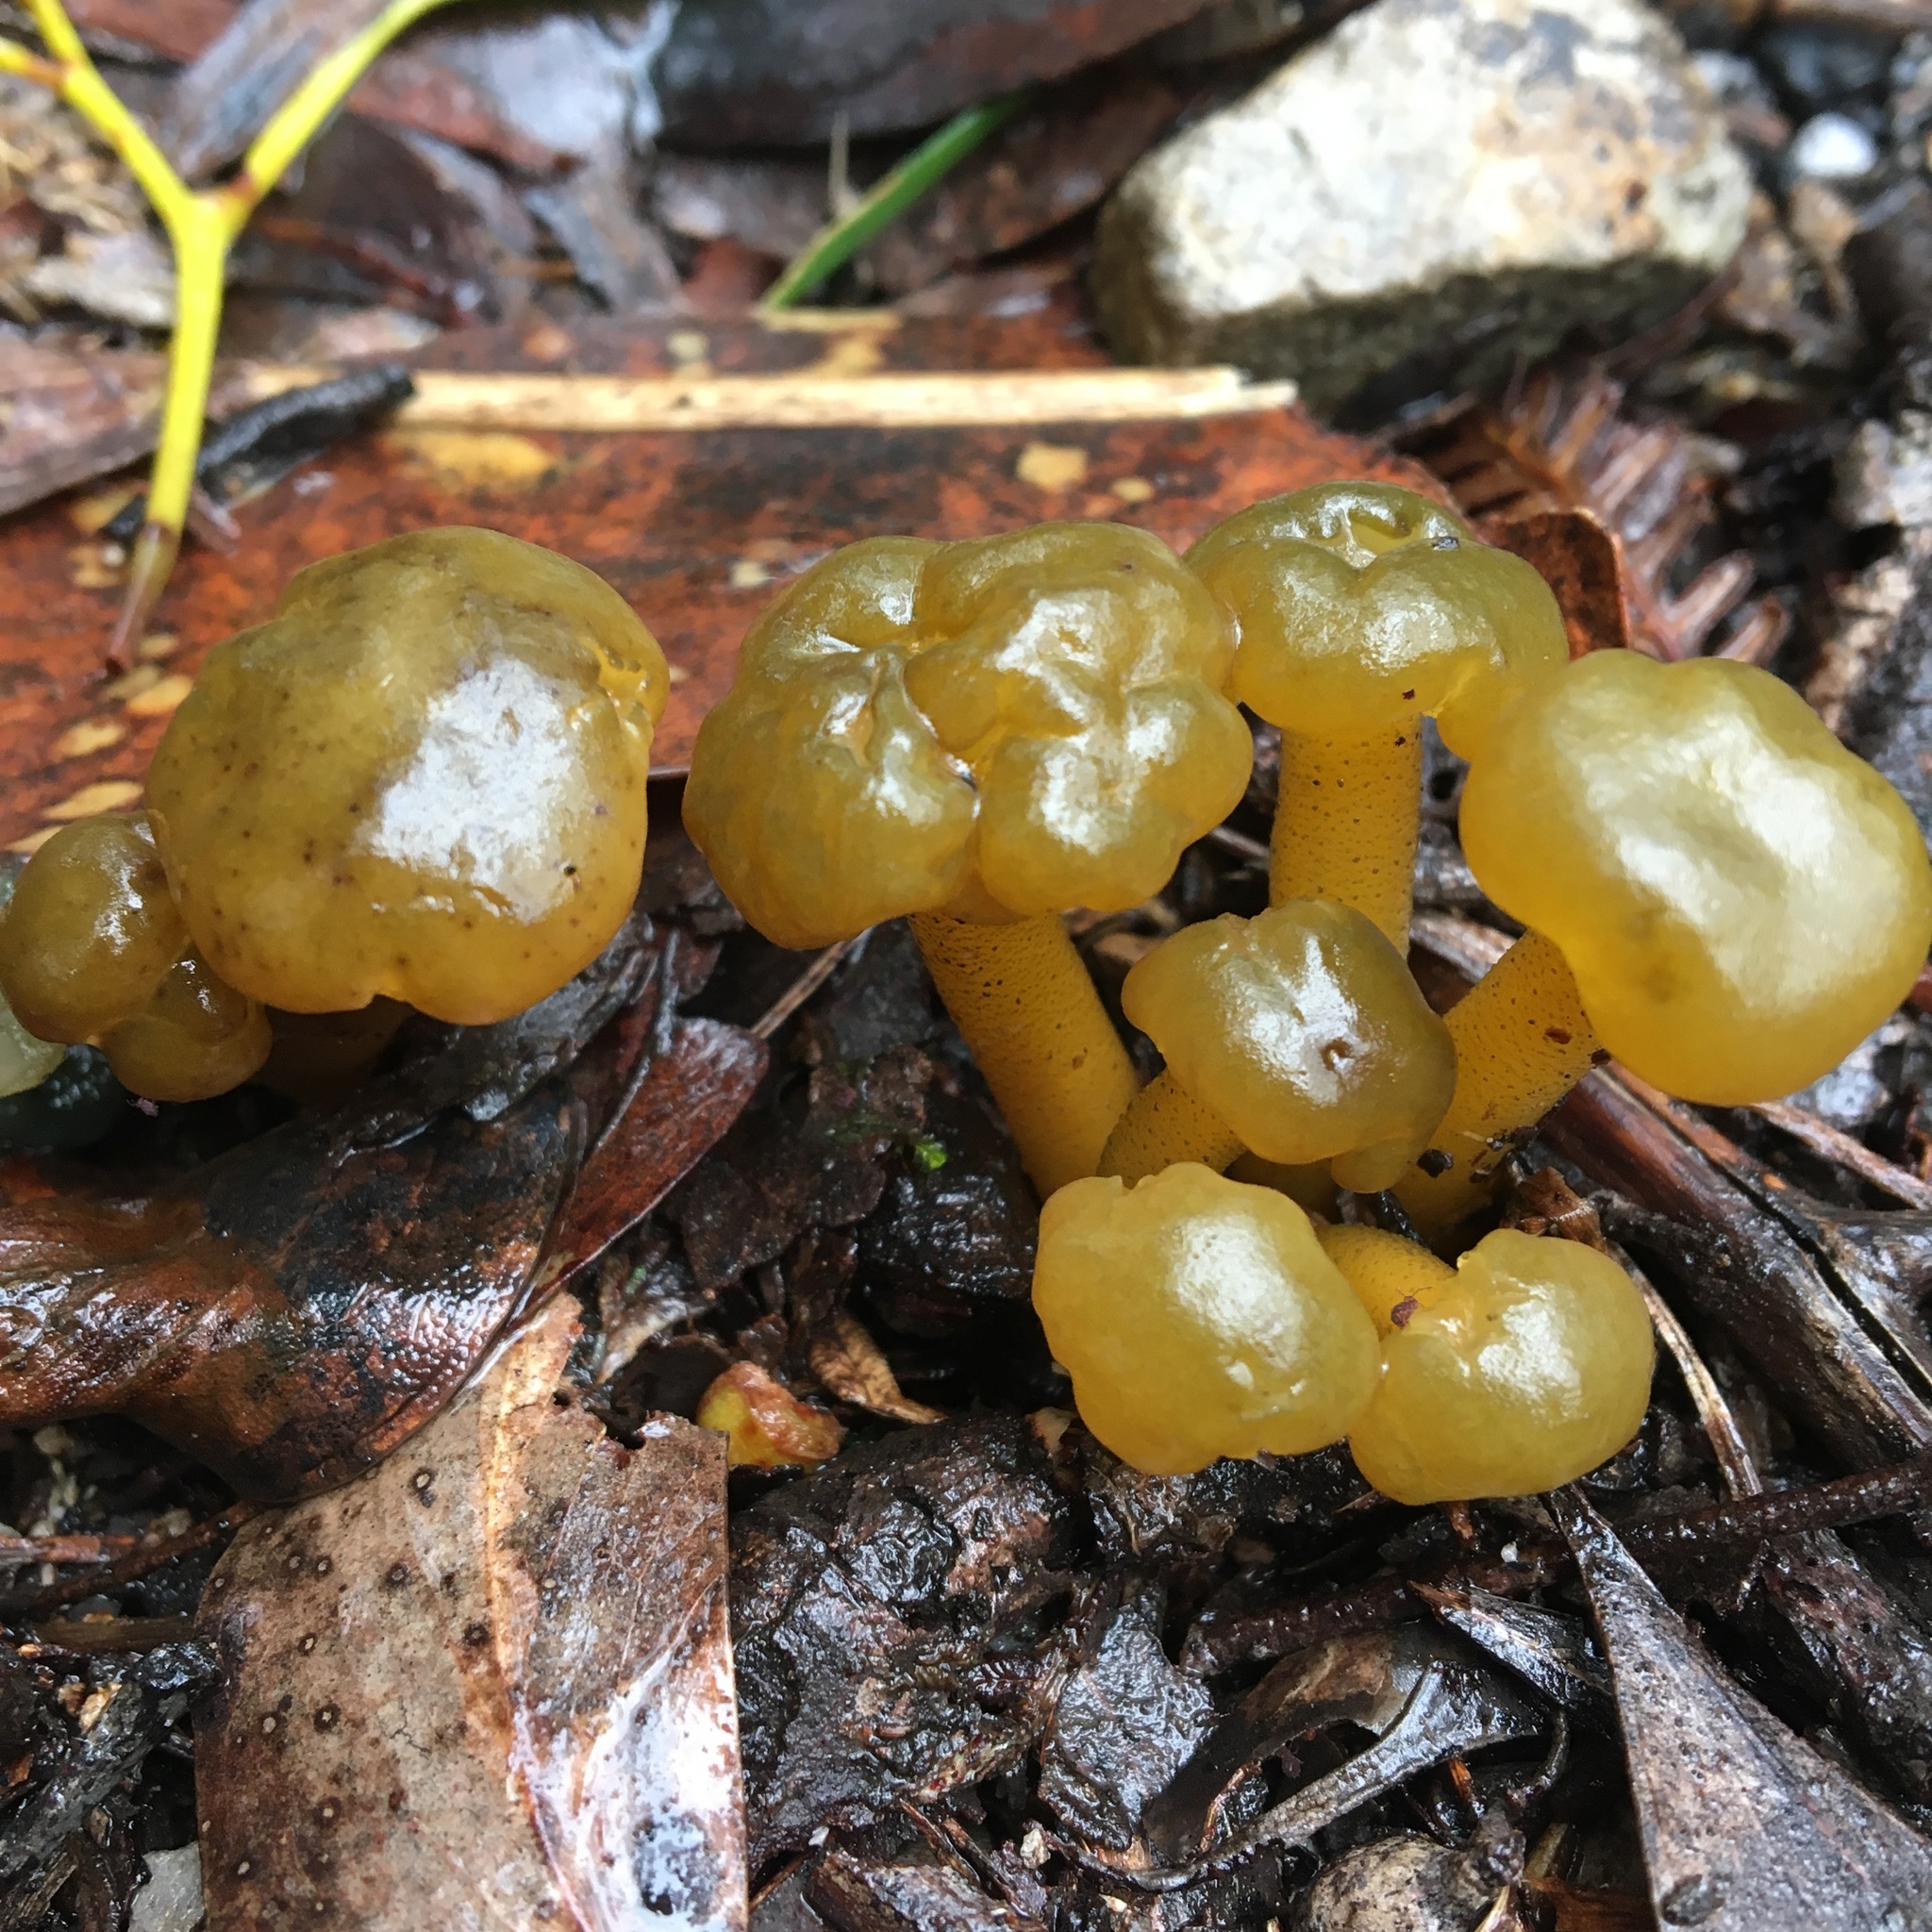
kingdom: Fungi
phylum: Ascomycota
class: Leotiomycetes
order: Leotiales
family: Leotiaceae
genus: Leotia
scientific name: Leotia lubrica
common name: Jellybaby
